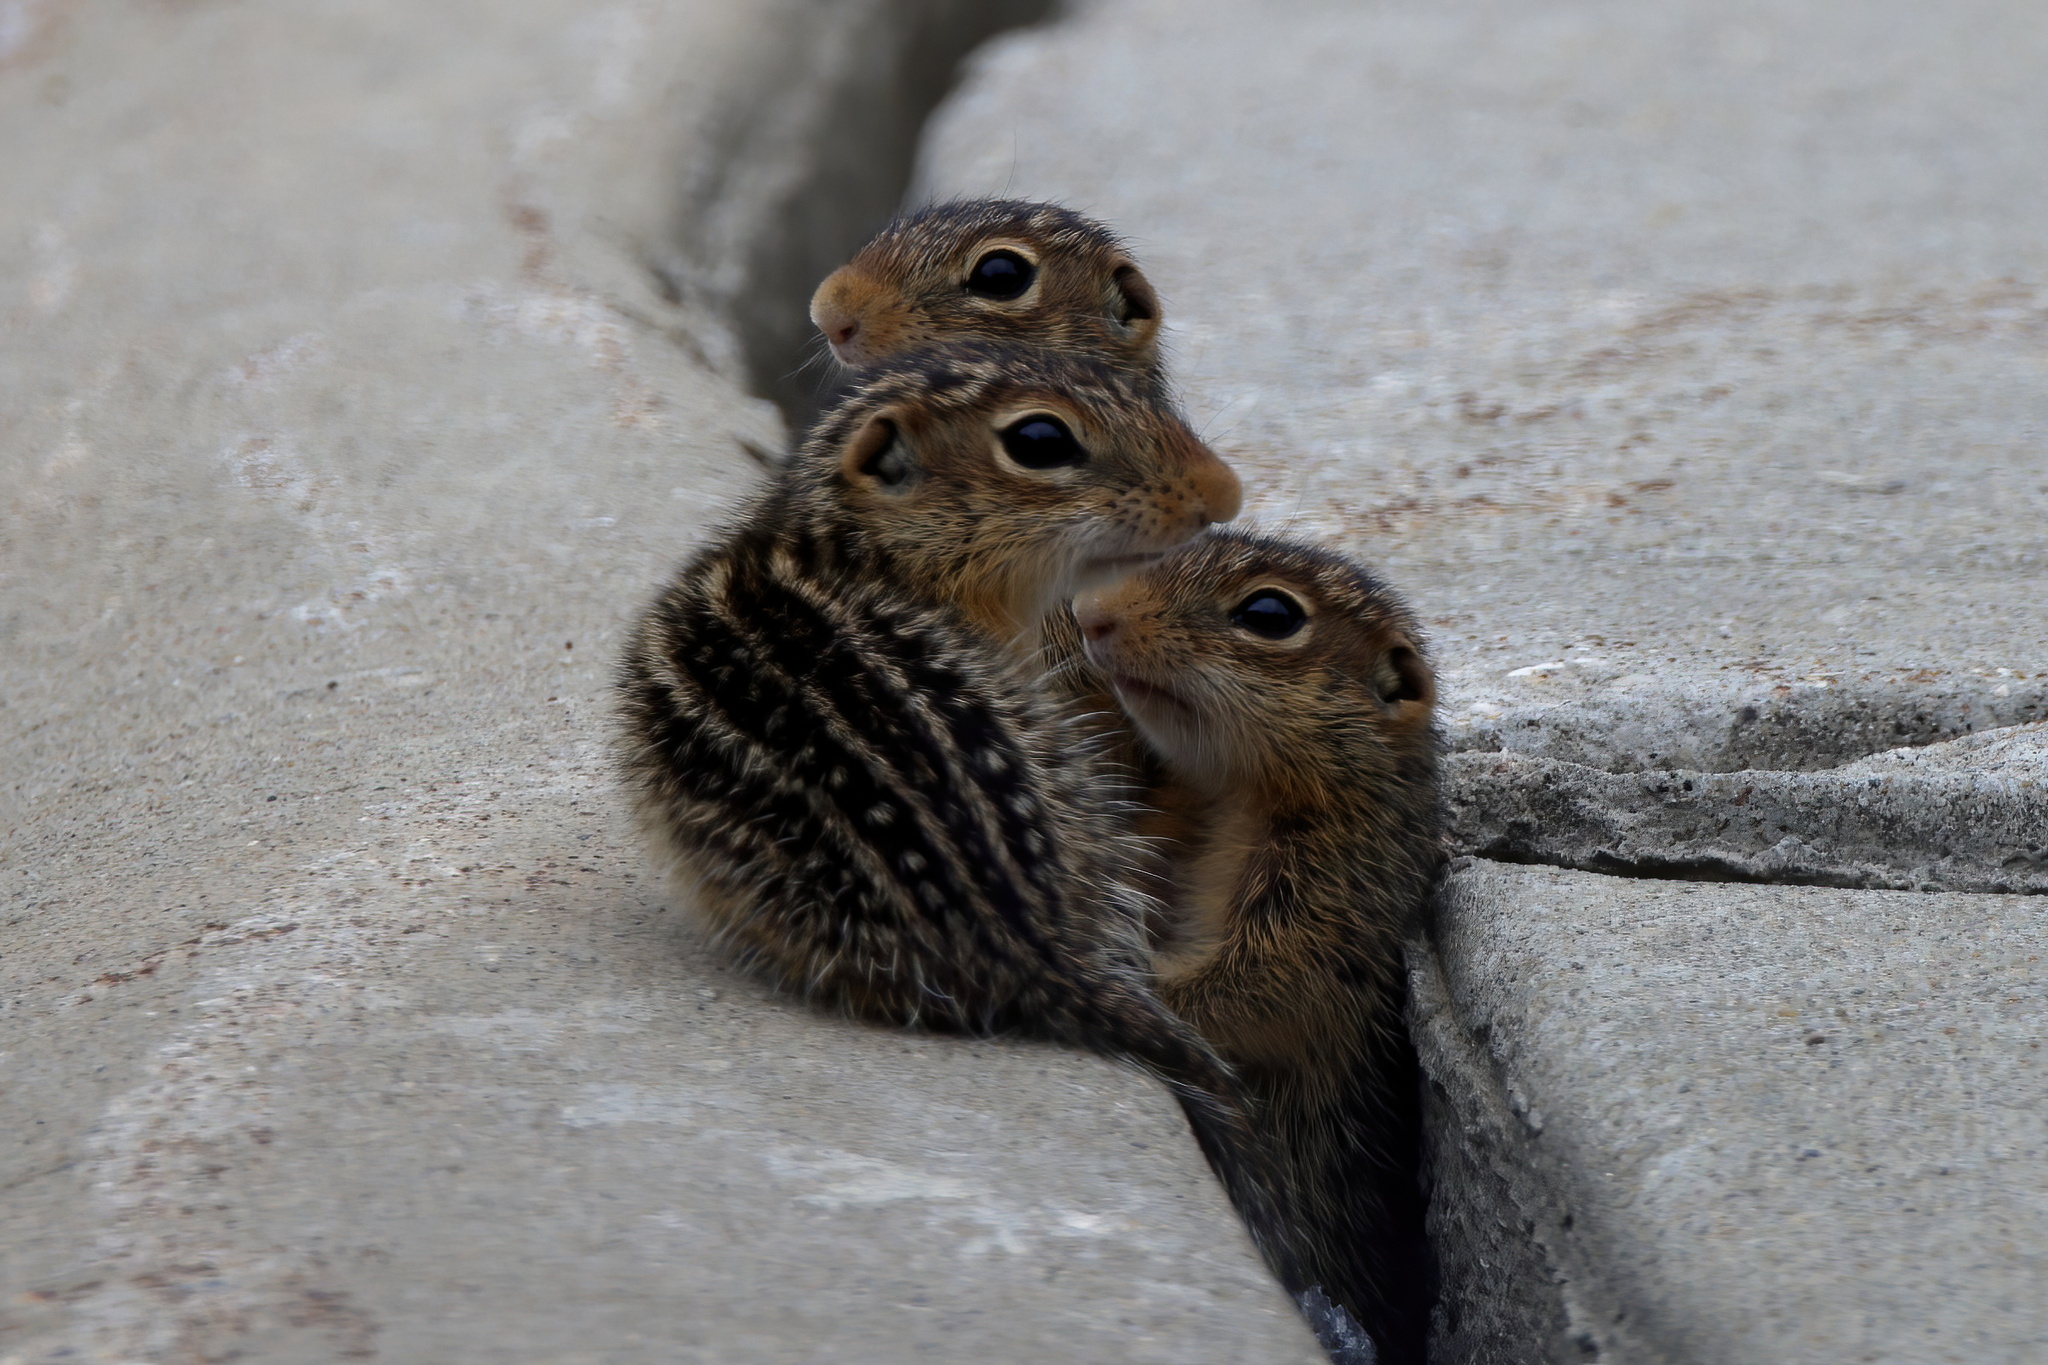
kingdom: Animalia
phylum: Chordata
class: Mammalia
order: Rodentia
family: Sciuridae
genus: Ictidomys
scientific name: Ictidomys tridecemlineatus
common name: Thirteen-lined ground squirrel
